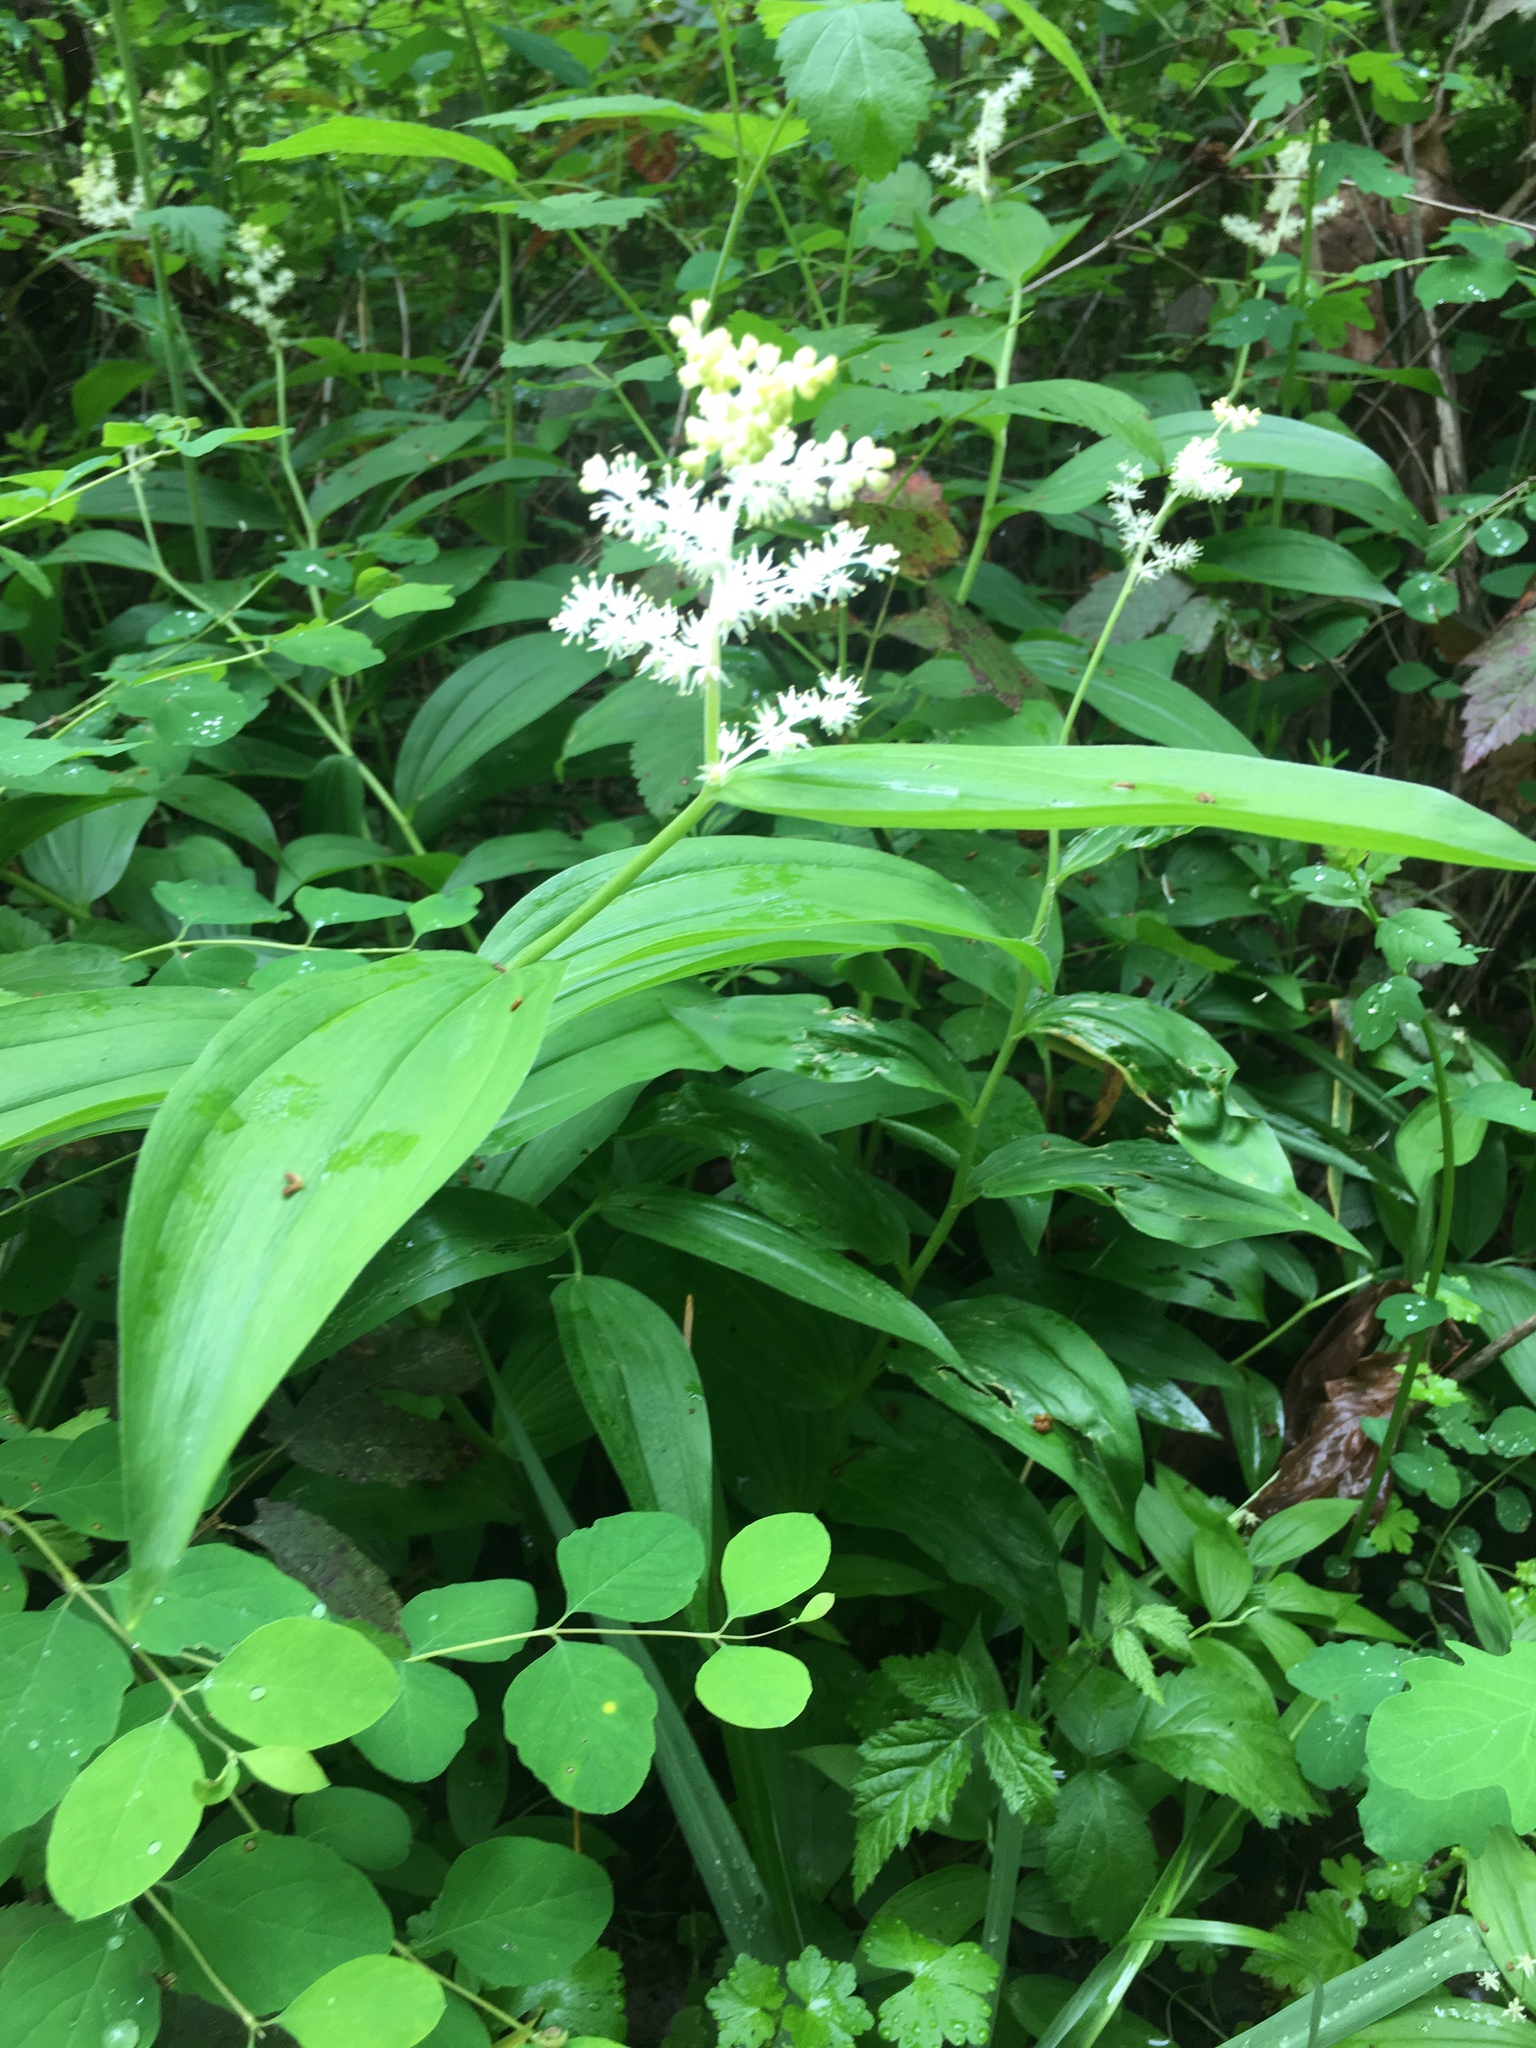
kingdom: Plantae
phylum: Tracheophyta
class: Liliopsida
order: Asparagales
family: Asparagaceae
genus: Maianthemum
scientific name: Maianthemum racemosum
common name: False spikenard
